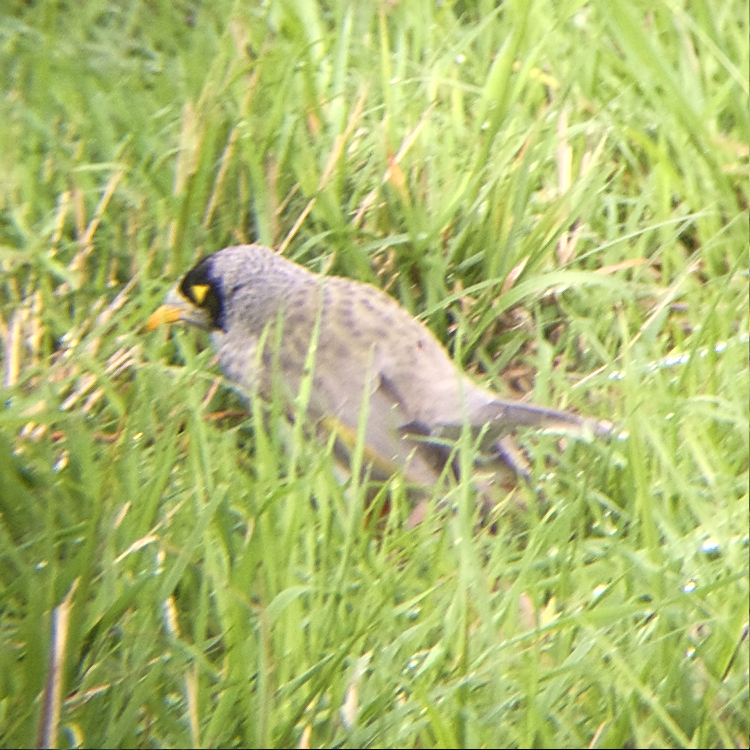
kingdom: Animalia
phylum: Chordata
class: Aves
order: Passeriformes
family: Meliphagidae
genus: Manorina
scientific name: Manorina melanocephala
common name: Noisy miner
